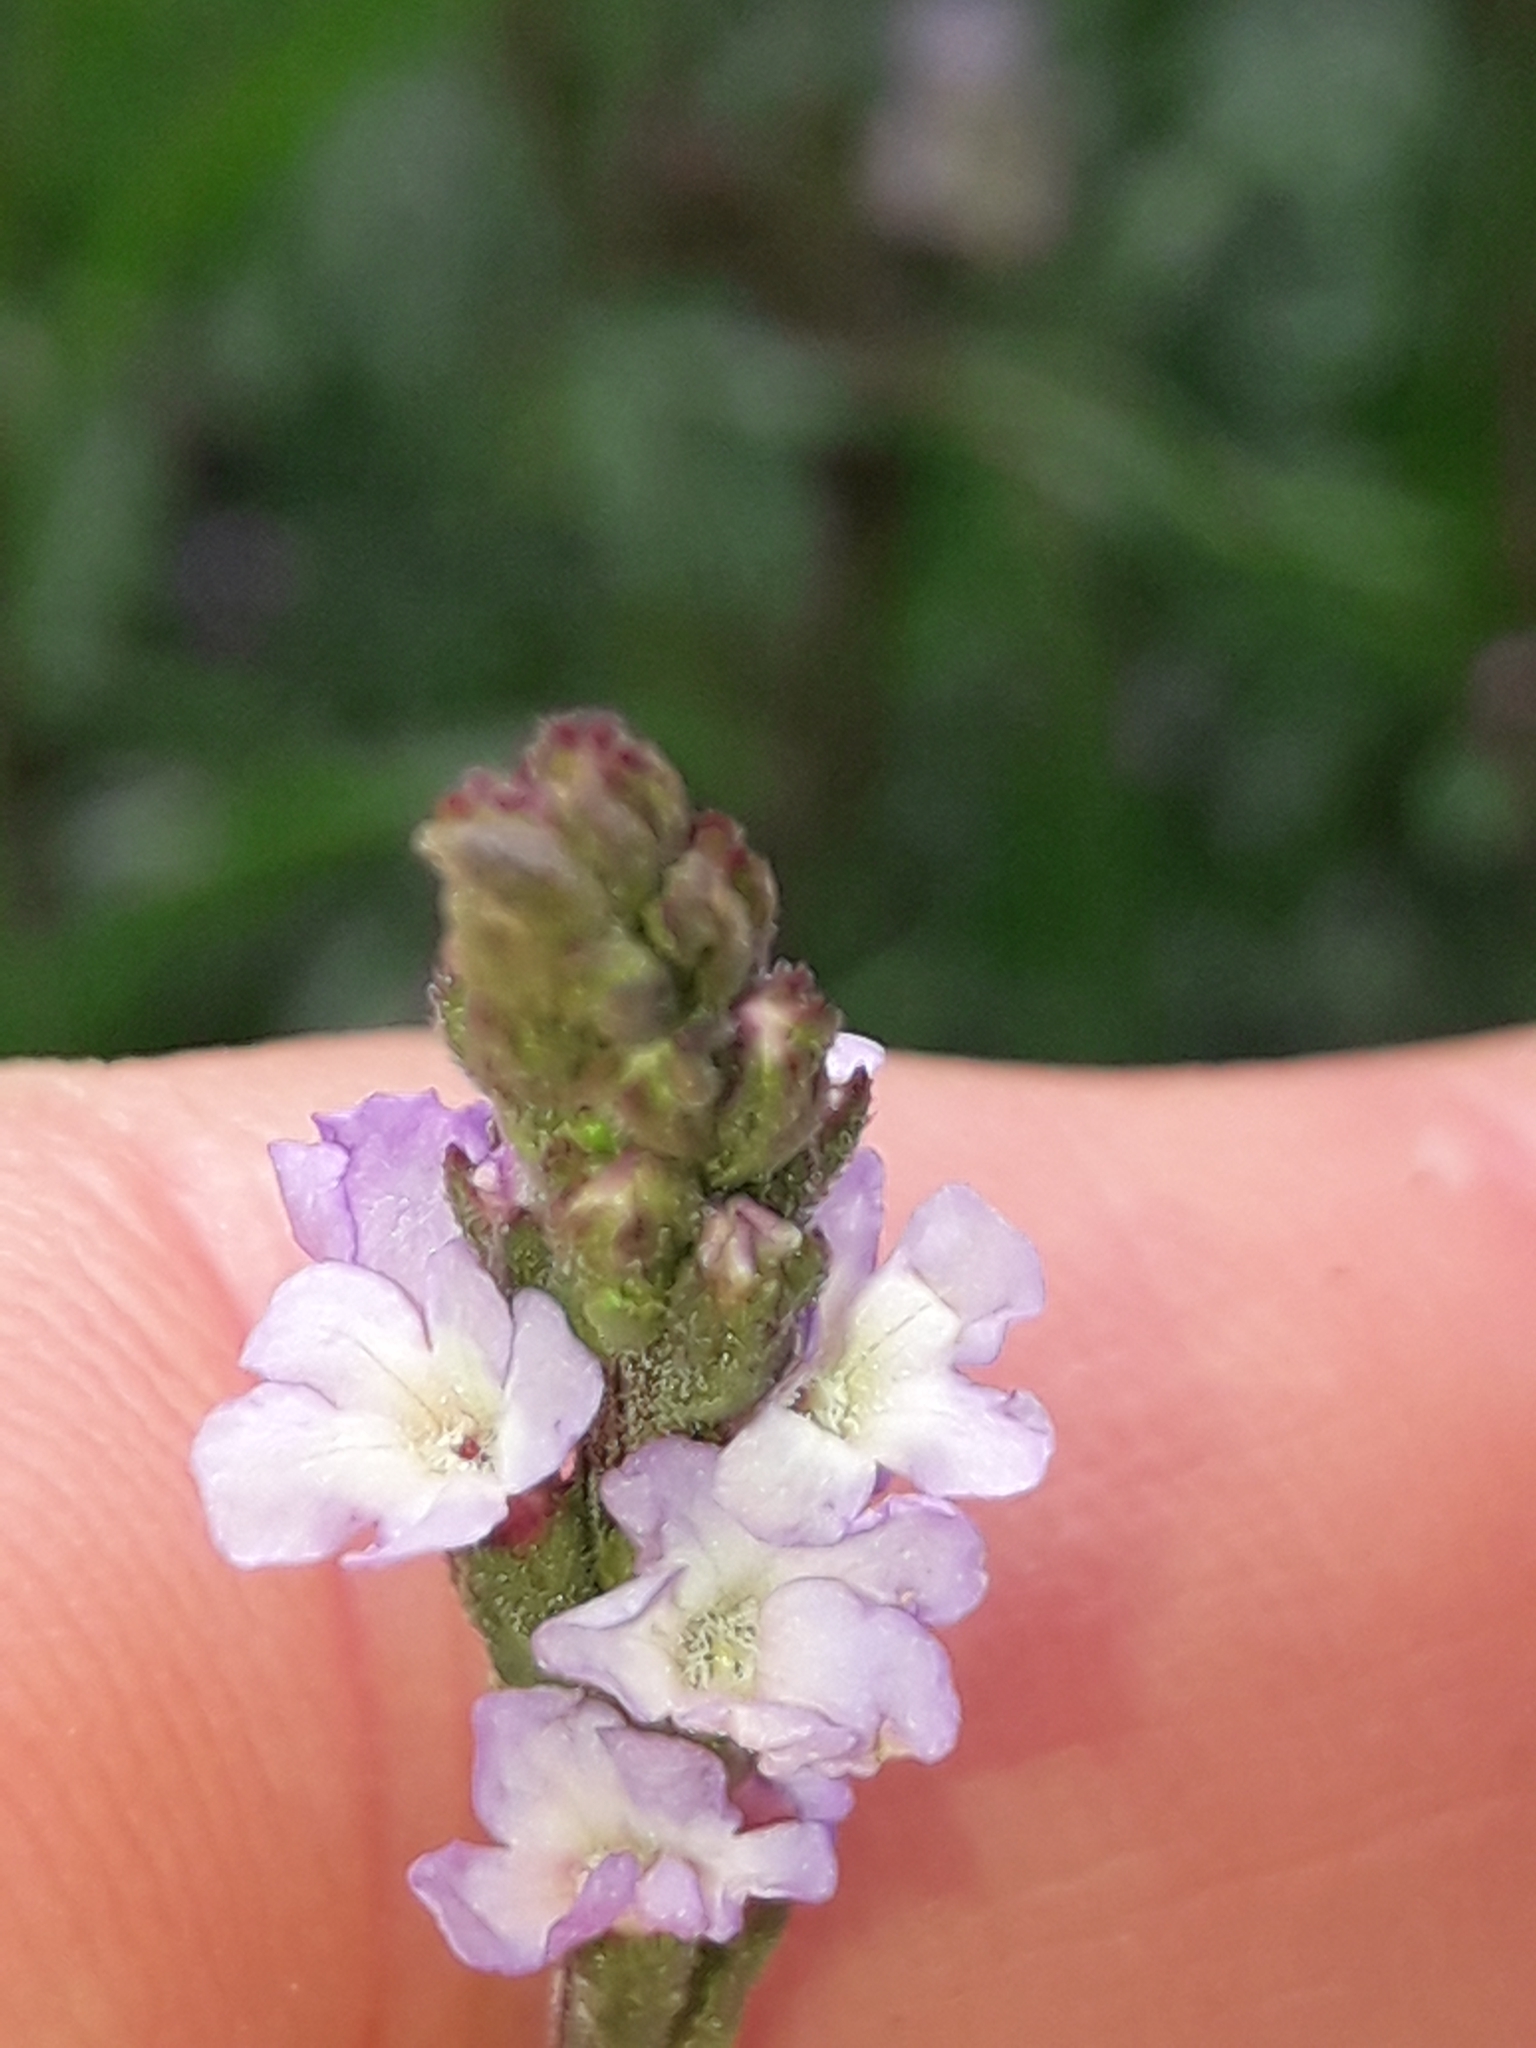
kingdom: Plantae
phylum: Tracheophyta
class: Magnoliopsida
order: Lamiales
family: Verbenaceae
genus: Verbena
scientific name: Verbena officinalis
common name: Vervain
